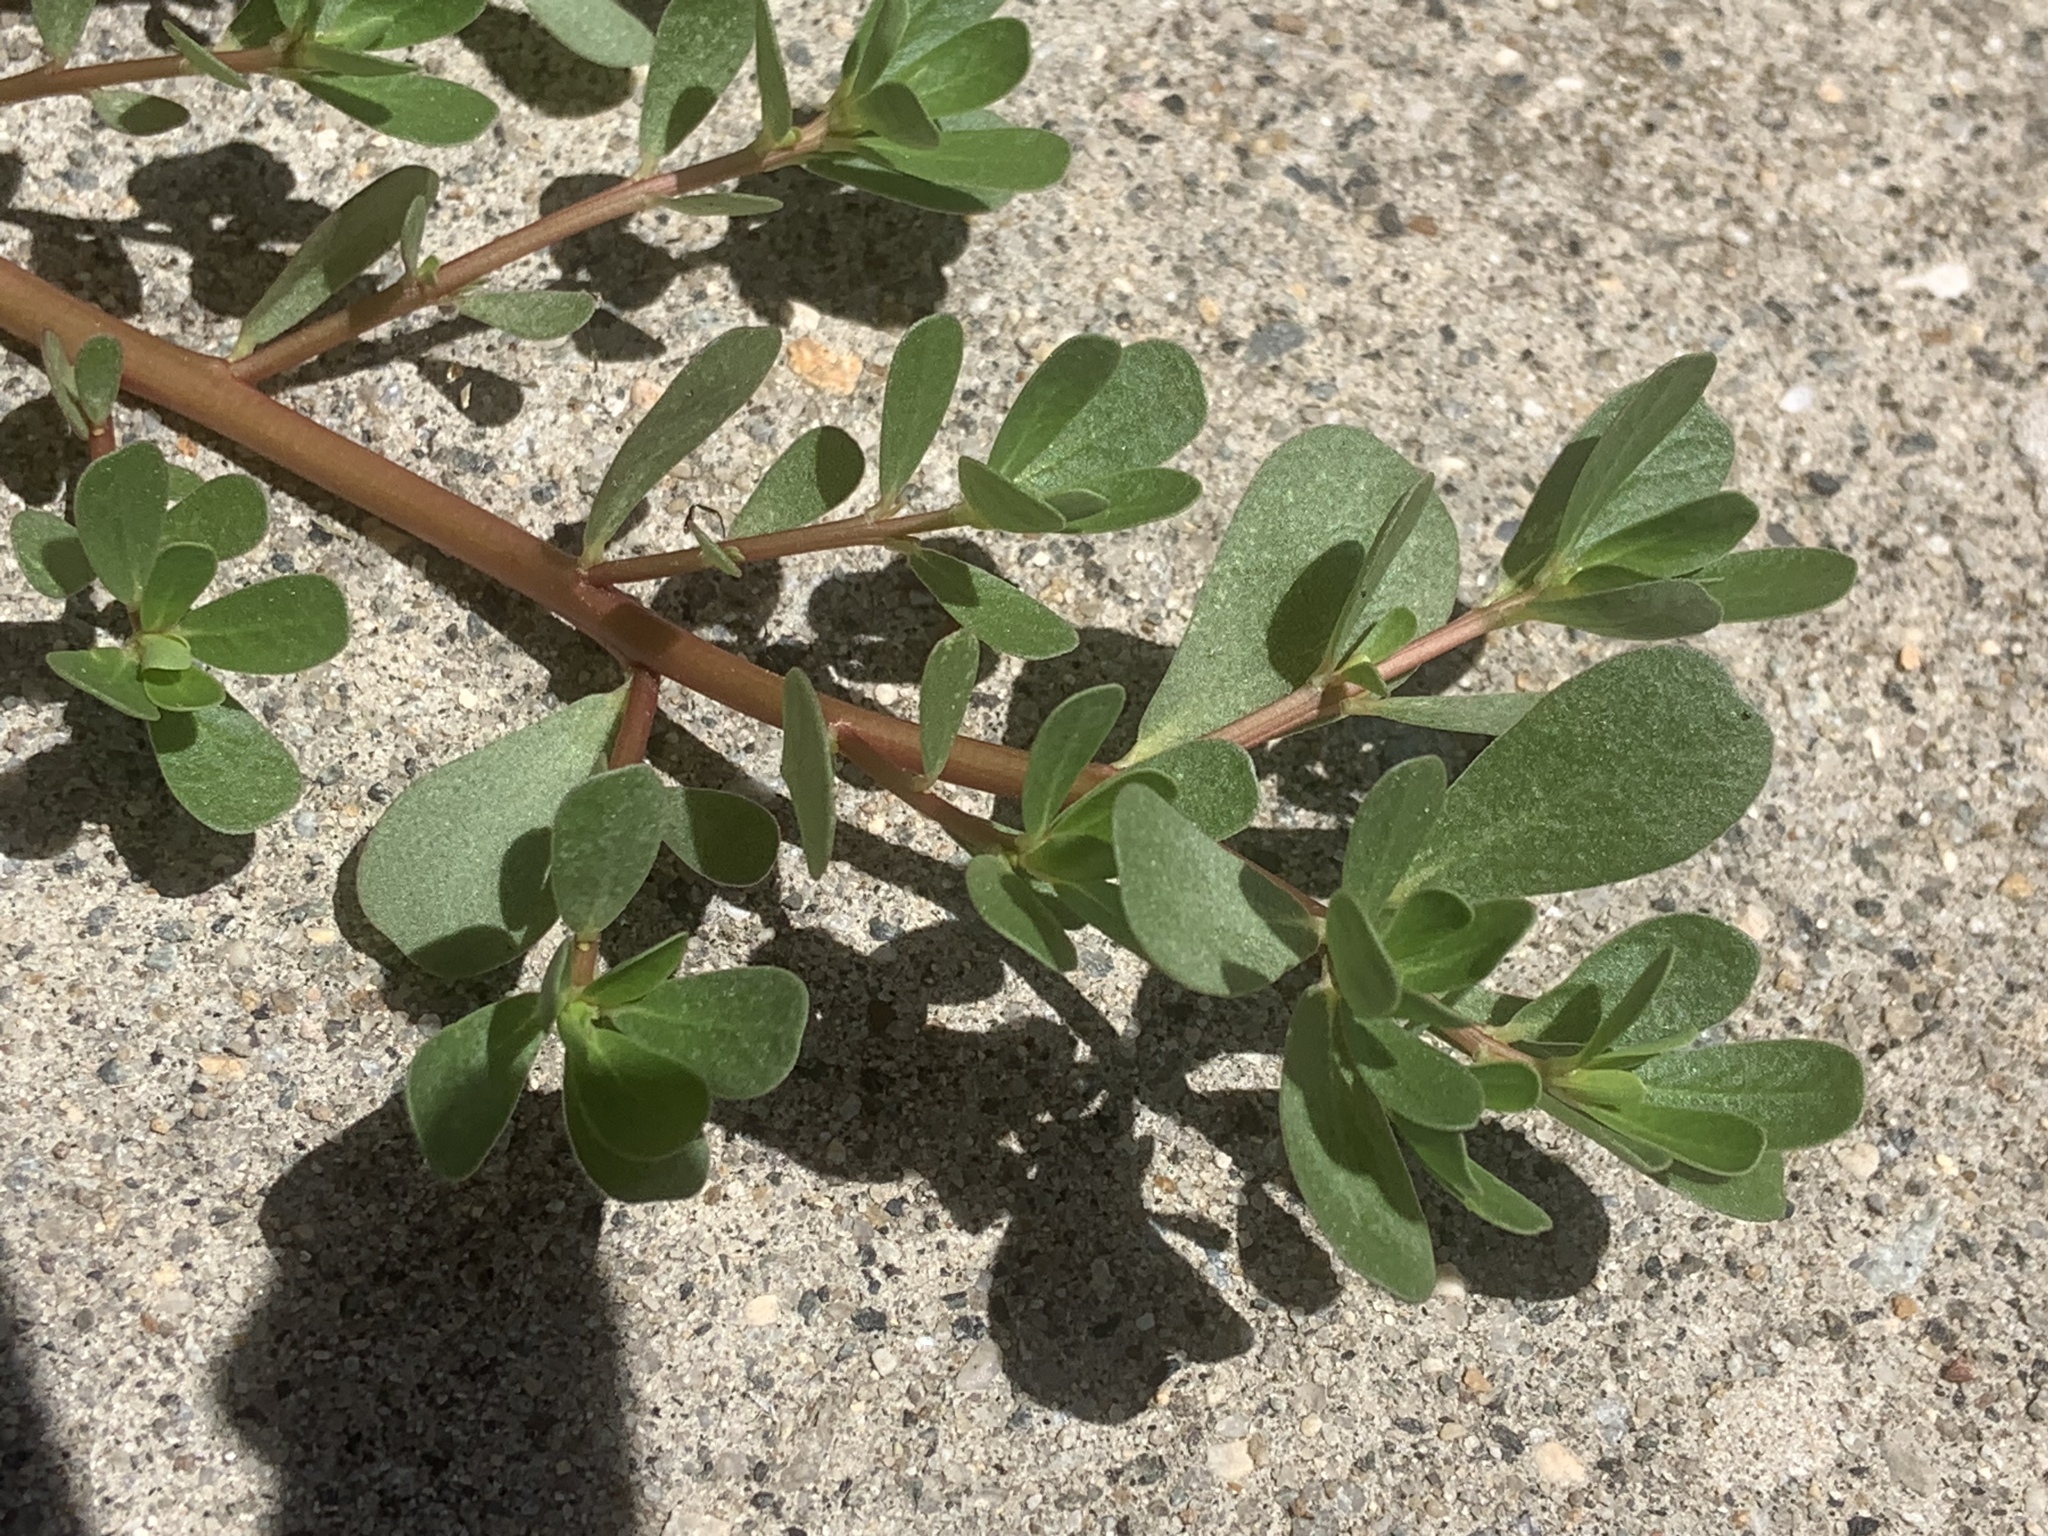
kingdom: Plantae
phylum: Tracheophyta
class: Magnoliopsida
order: Caryophyllales
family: Portulacaceae
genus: Portulaca
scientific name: Portulaca oleracea
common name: Common purslane
